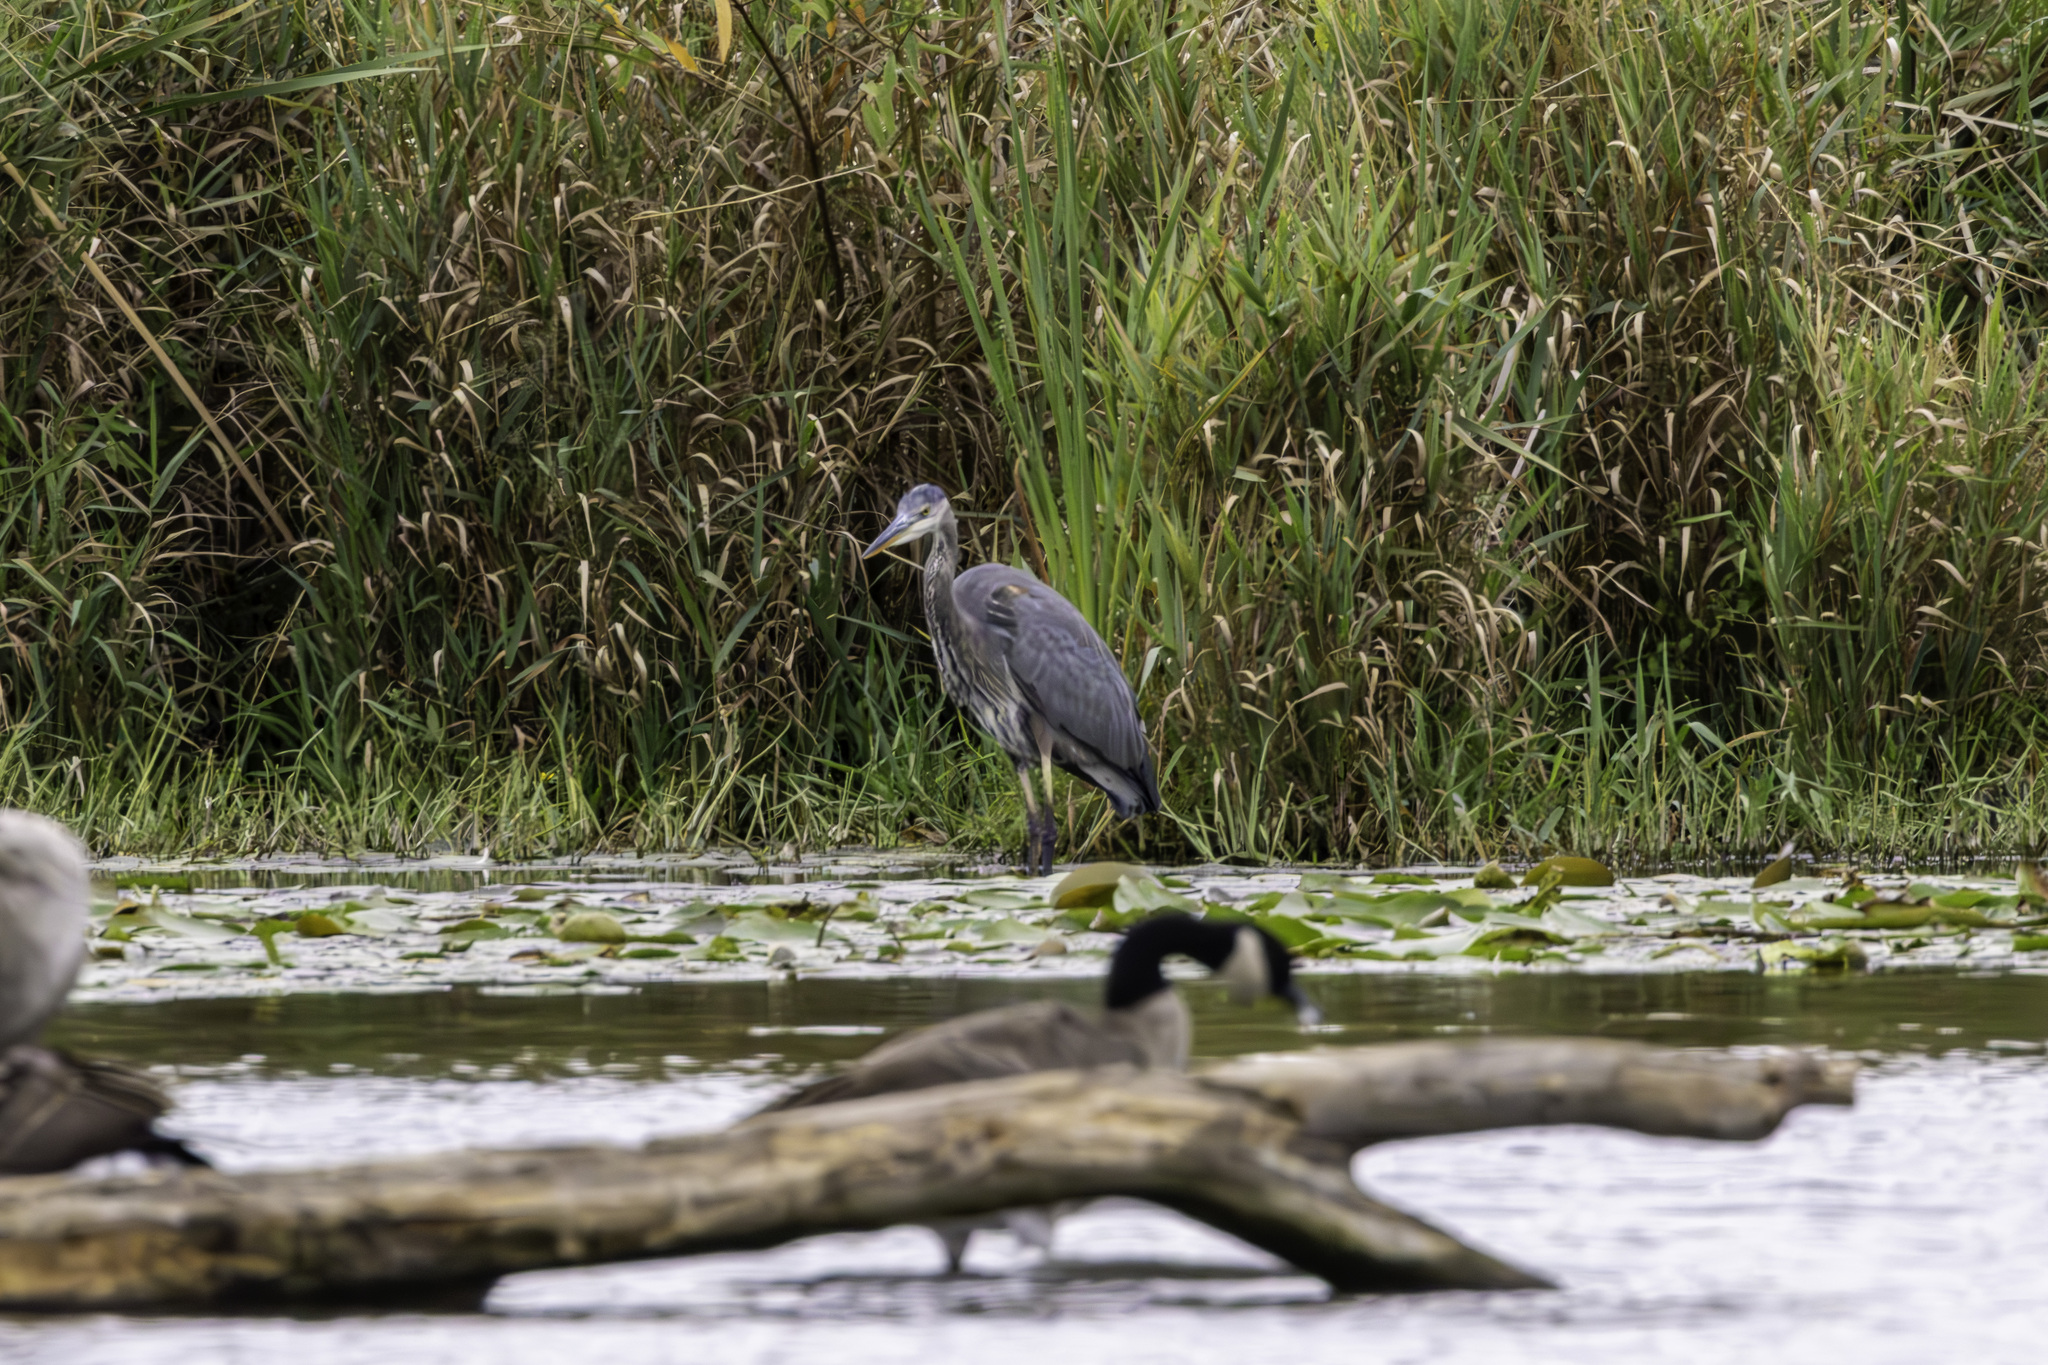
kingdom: Animalia
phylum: Chordata
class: Aves
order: Pelecaniformes
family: Ardeidae
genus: Ardea
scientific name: Ardea herodias
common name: Great blue heron
